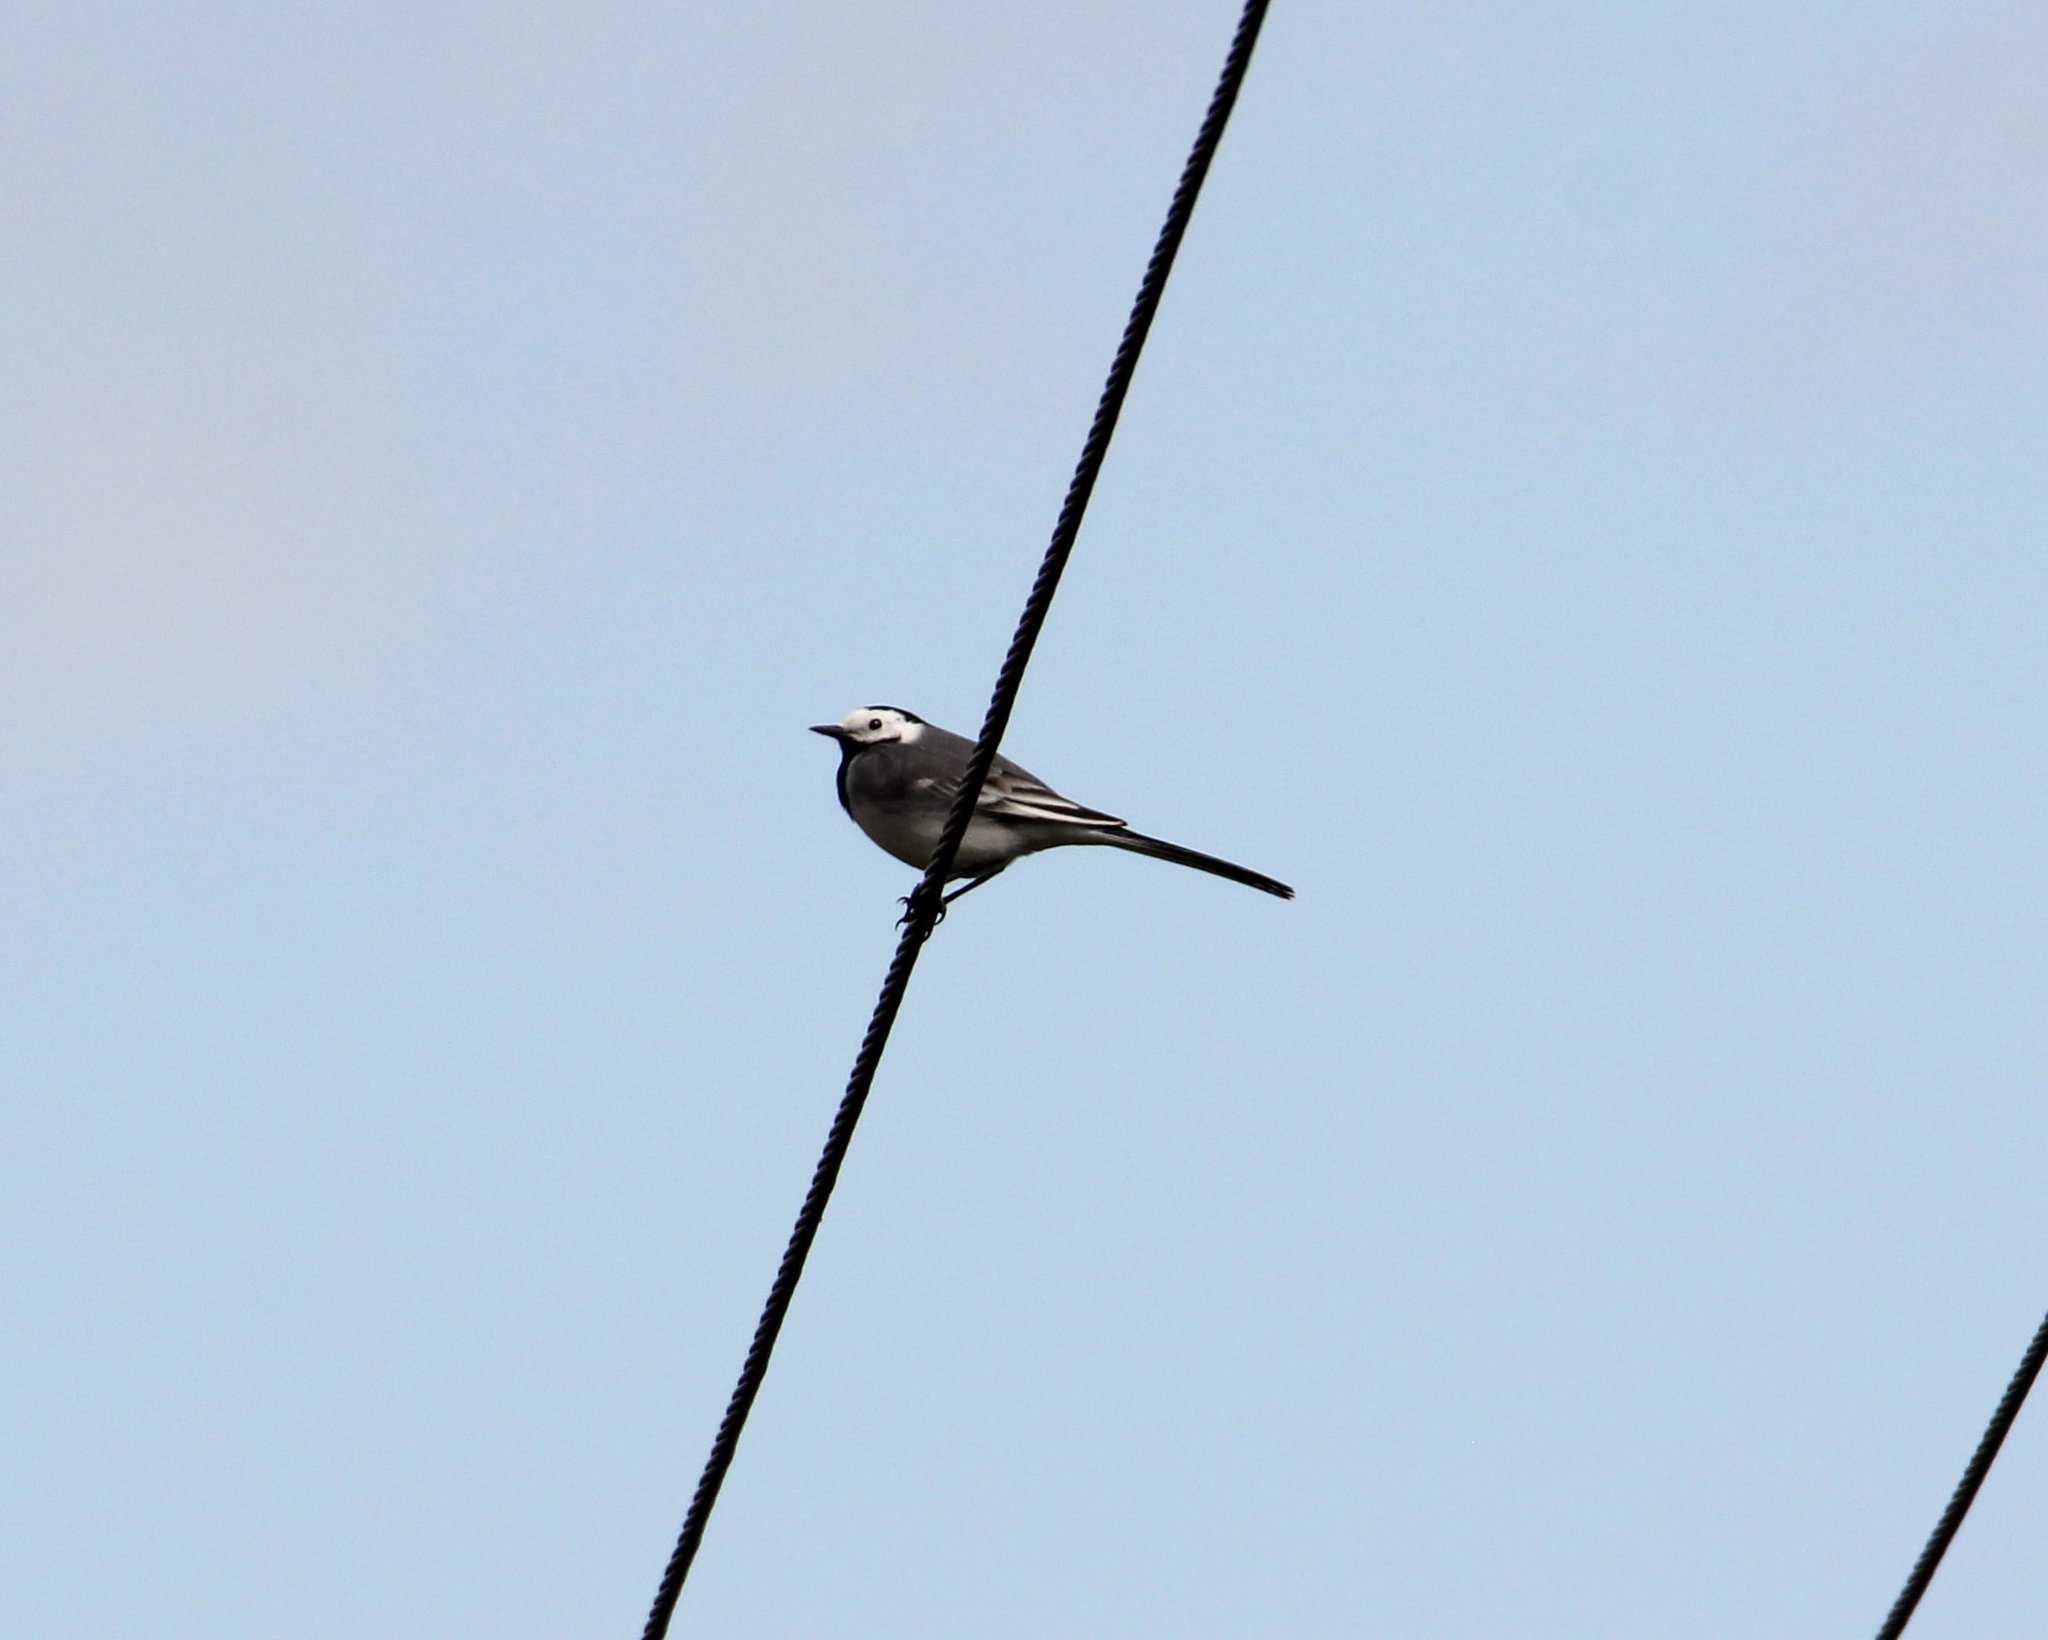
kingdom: Animalia
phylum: Chordata
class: Aves
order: Passeriformes
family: Motacillidae
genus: Motacilla
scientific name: Motacilla alba
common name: White wagtail
